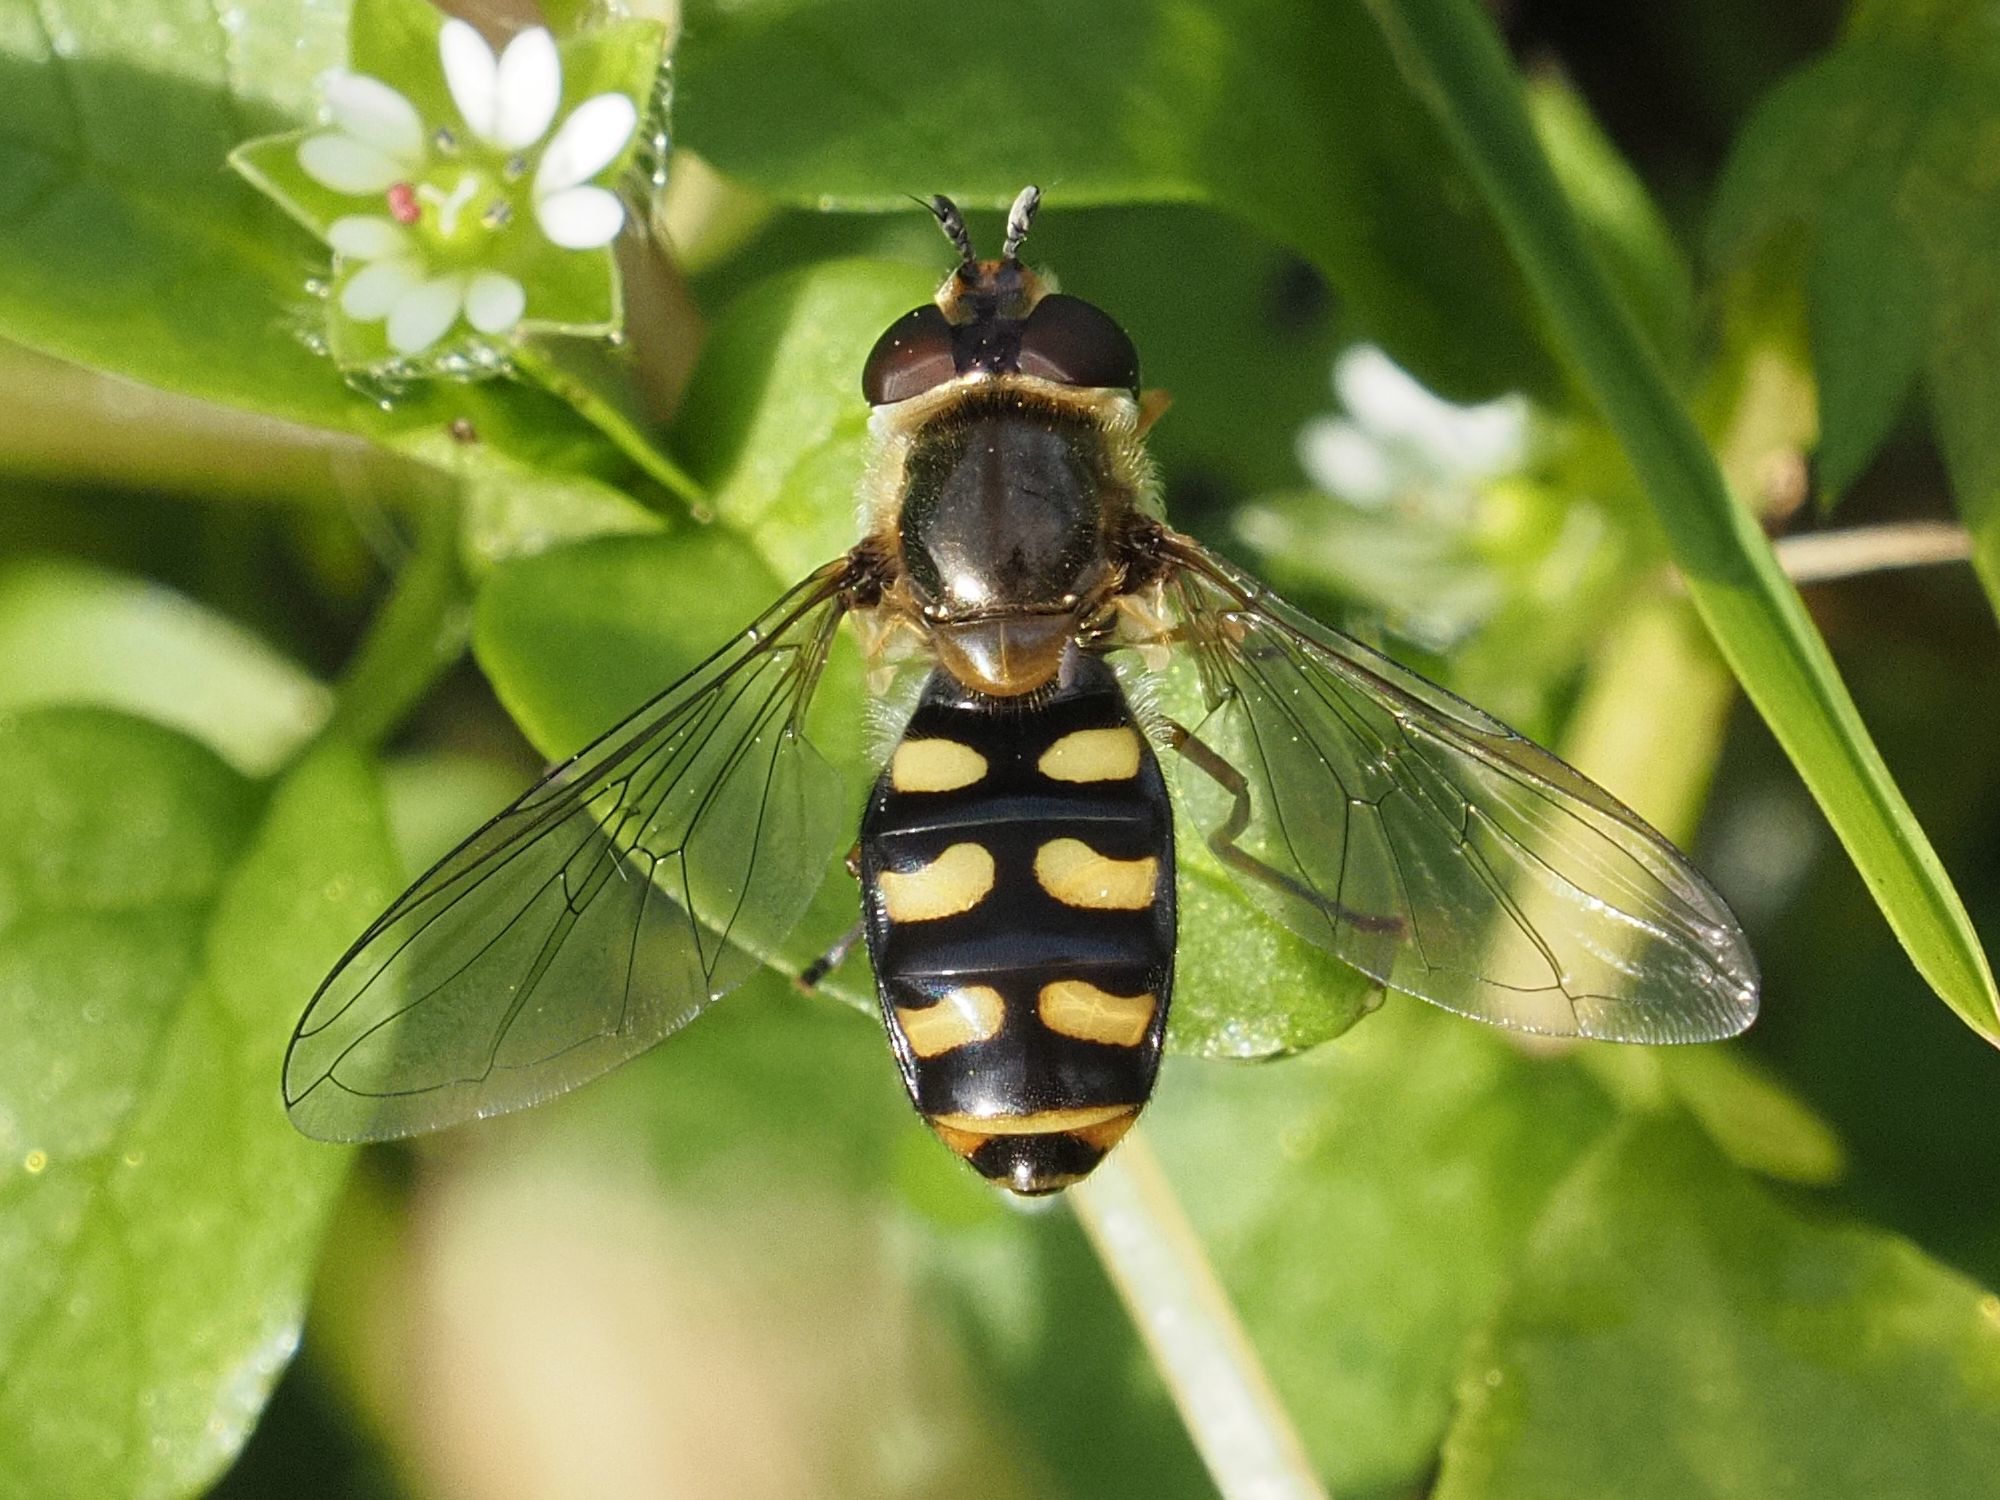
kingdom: Animalia
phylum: Arthropoda
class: Insecta
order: Diptera
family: Syrphidae
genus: Eupeodes
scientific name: Eupeodes luniger
